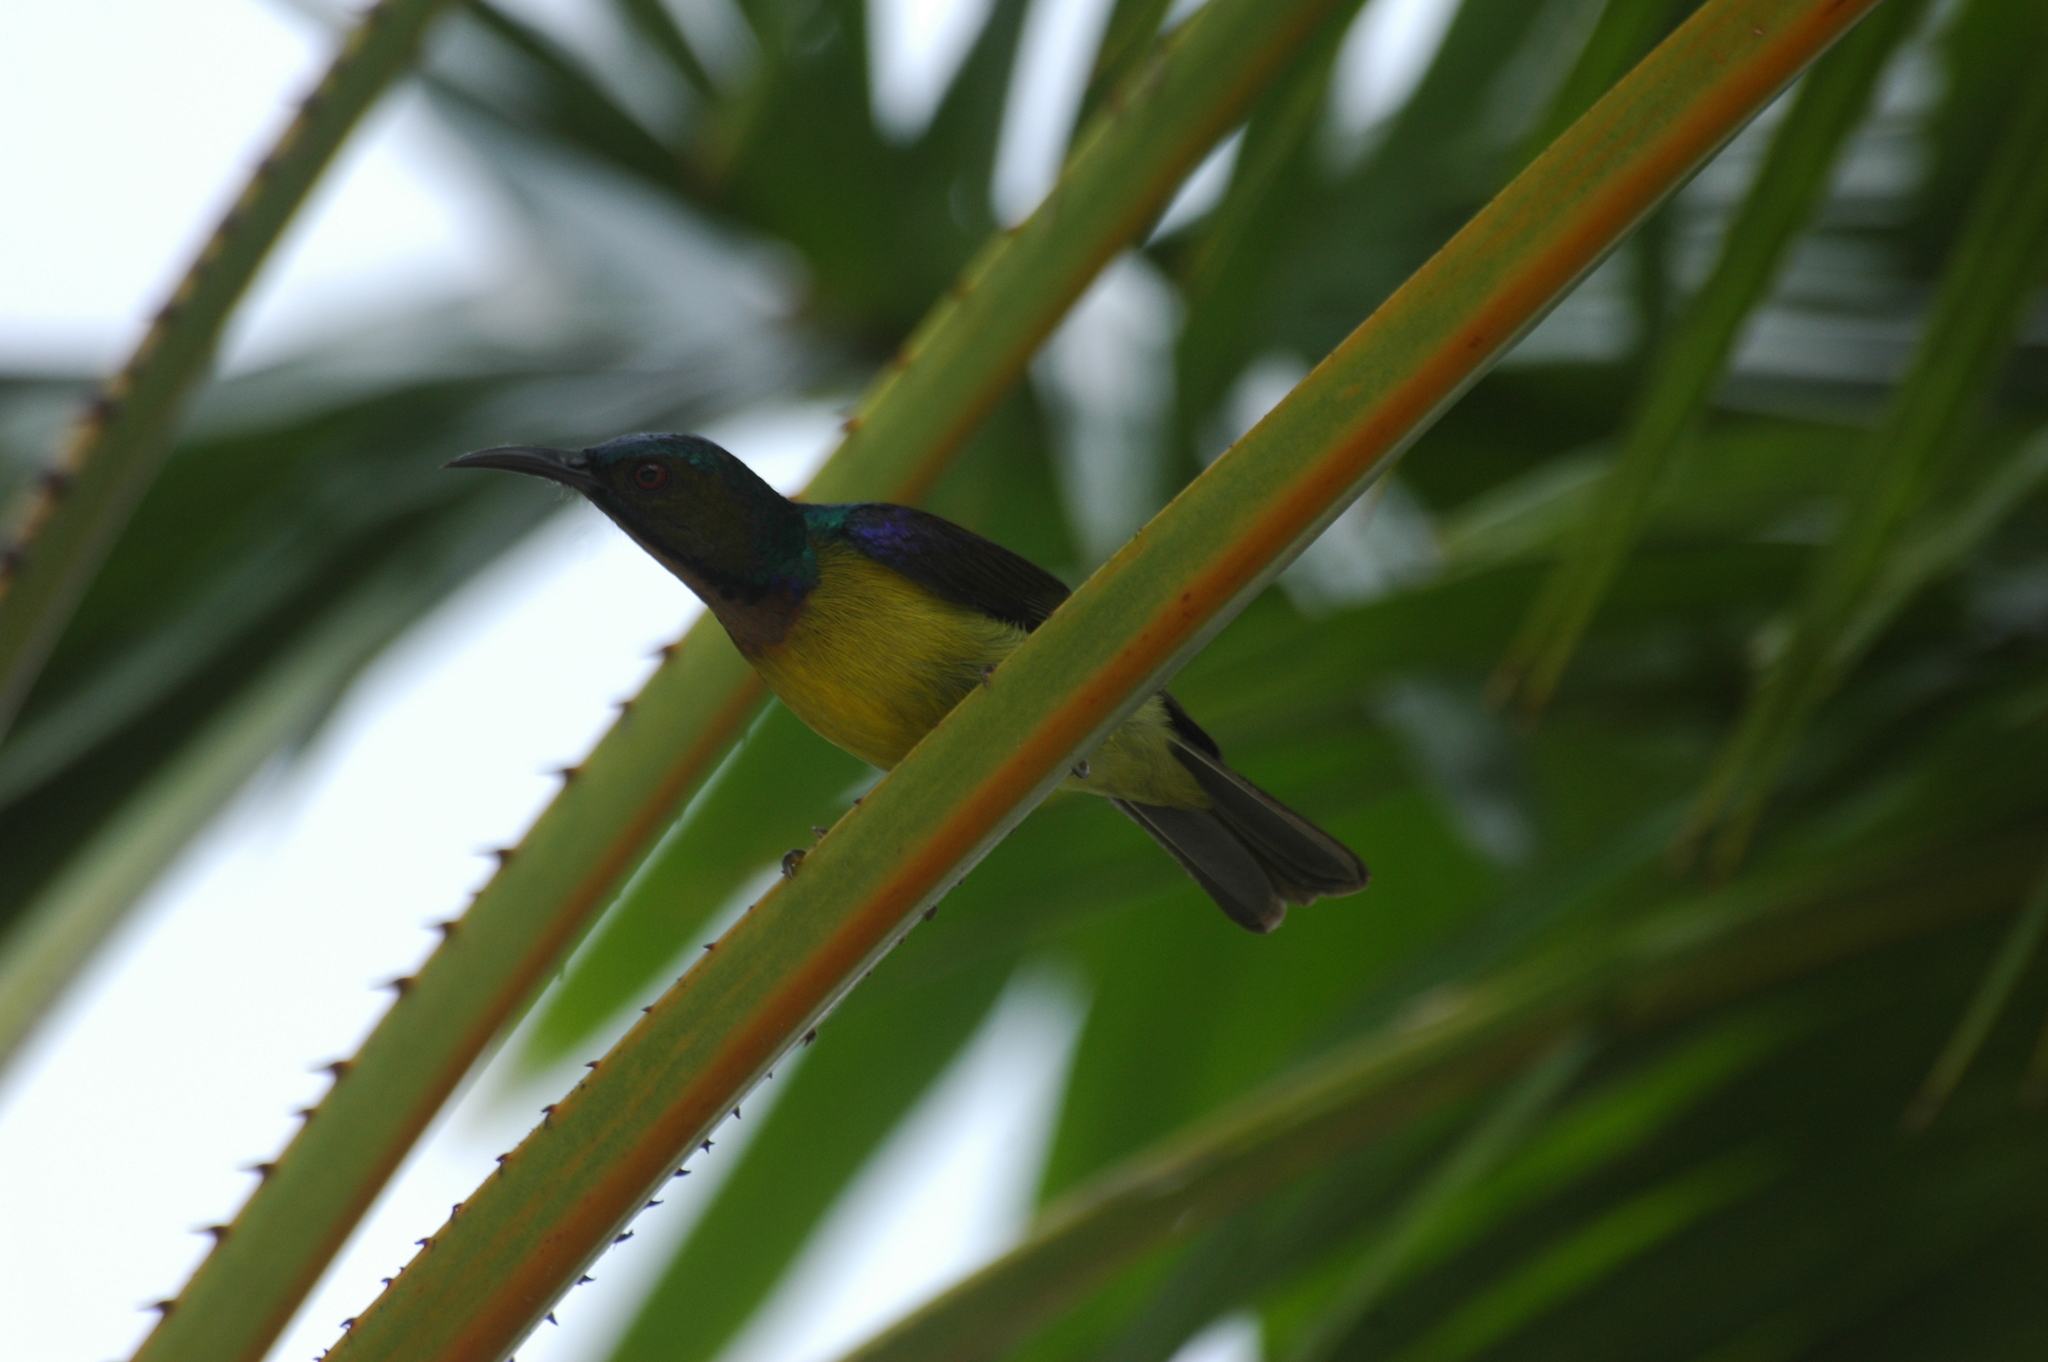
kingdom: Animalia
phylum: Chordata
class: Aves
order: Passeriformes
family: Nectariniidae
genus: Anthreptes
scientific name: Anthreptes malacensis
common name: Brown-throated sunbird
